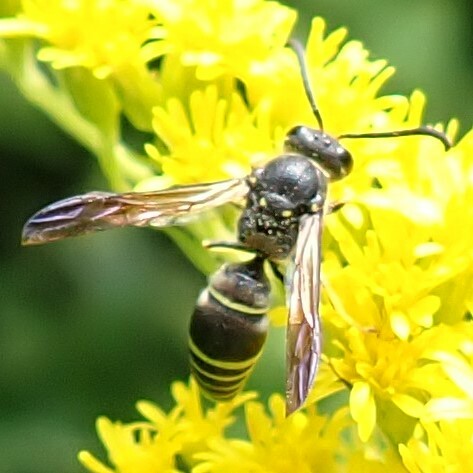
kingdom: Animalia
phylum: Arthropoda
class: Insecta
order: Hymenoptera
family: Vespidae
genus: Ancistrocerus
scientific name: Ancistrocerus
